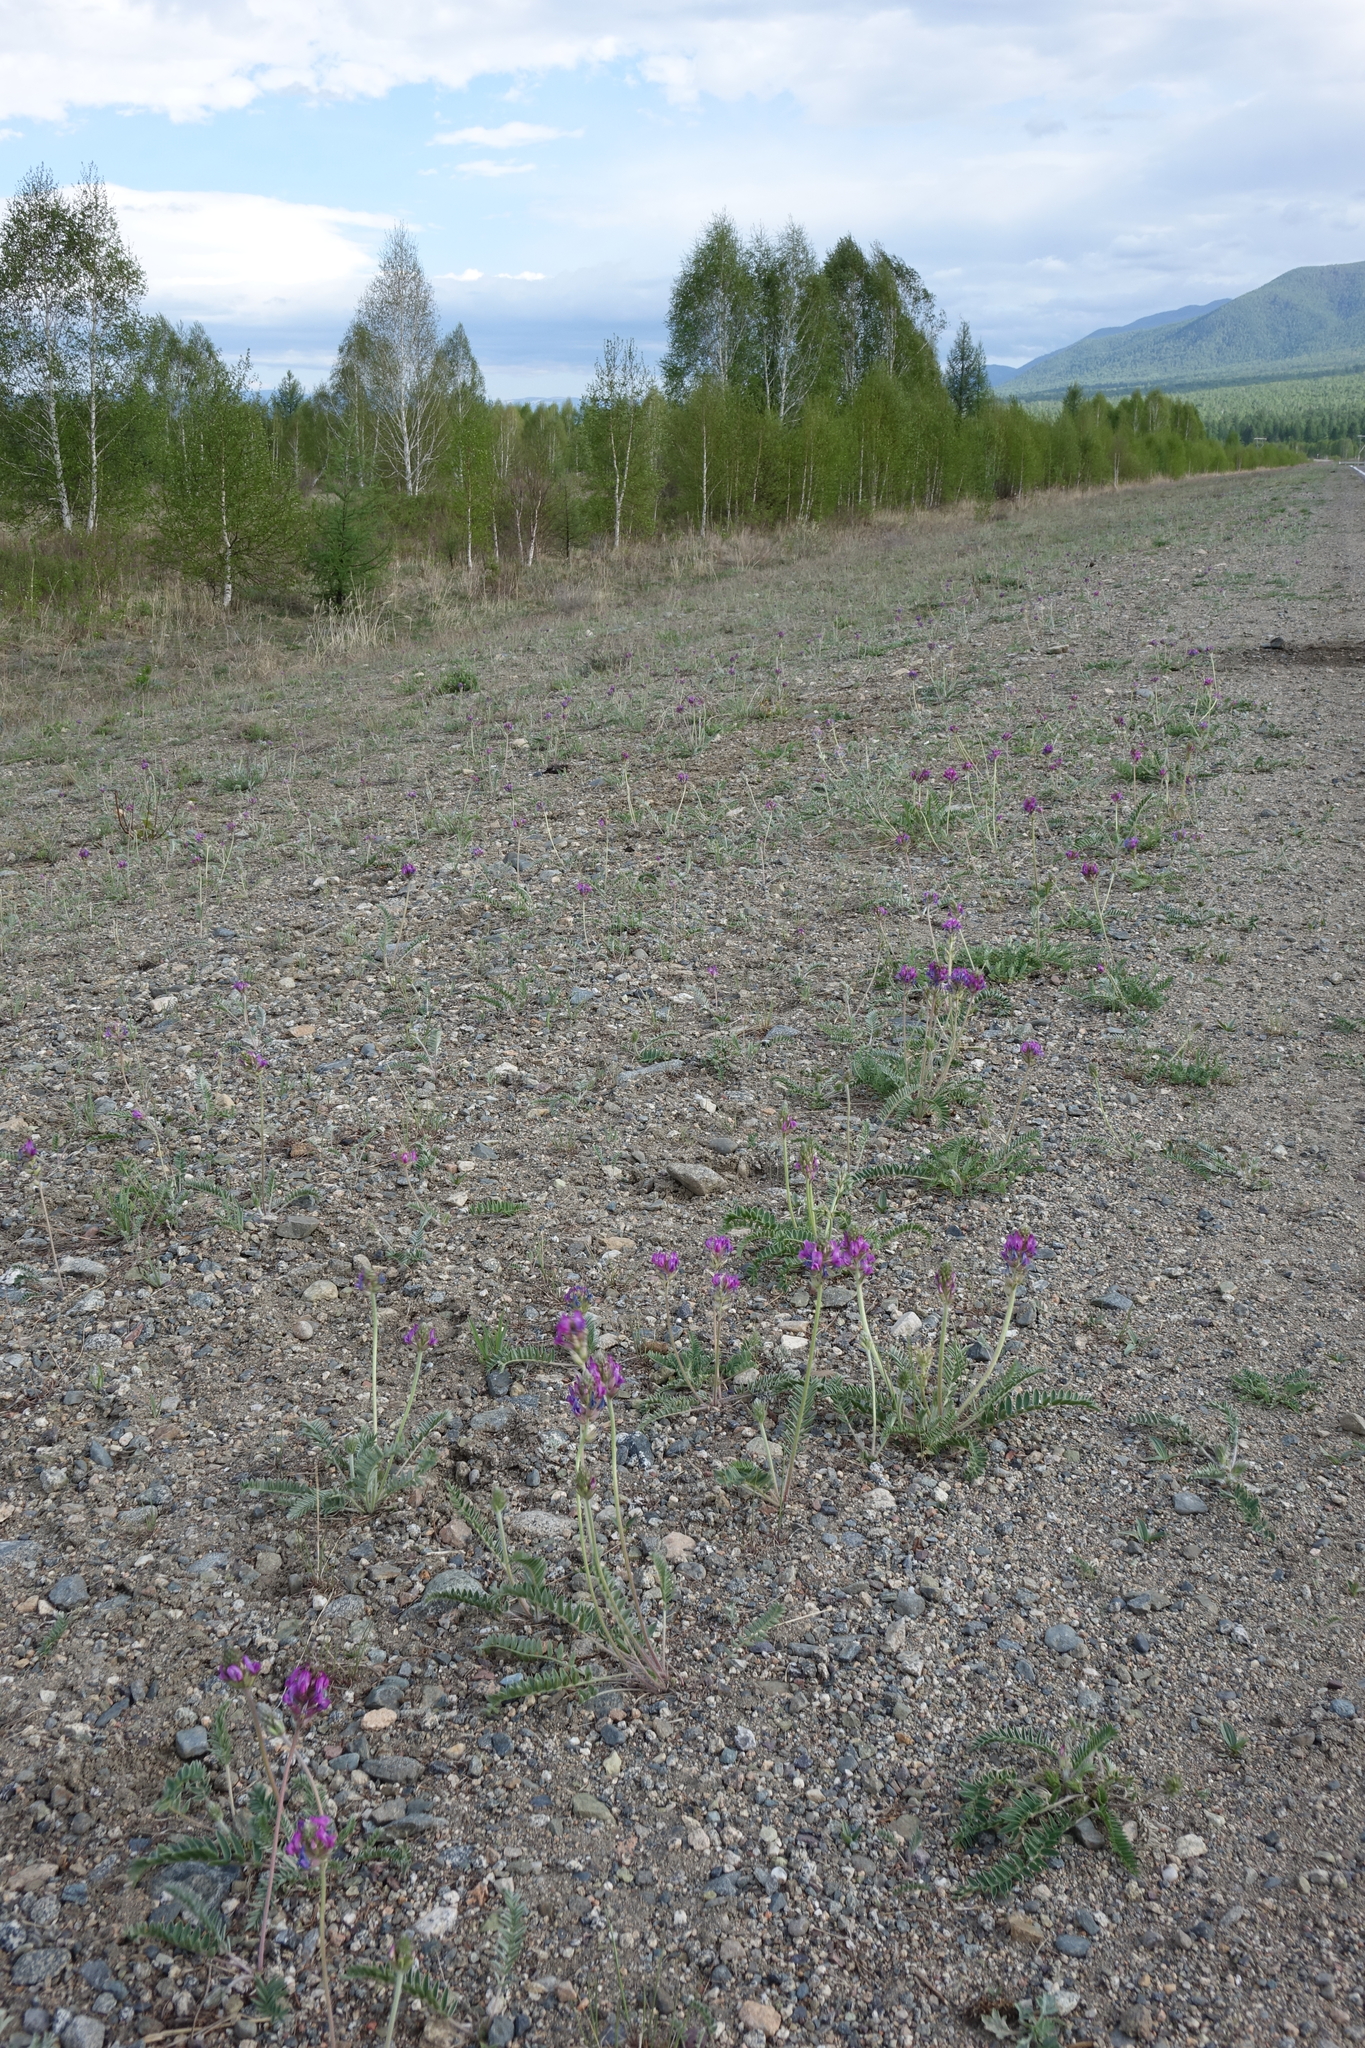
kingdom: Plantae
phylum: Tracheophyta
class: Magnoliopsida
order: Fabales
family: Fabaceae
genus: Oxytropis
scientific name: Oxytropis strobilacea
